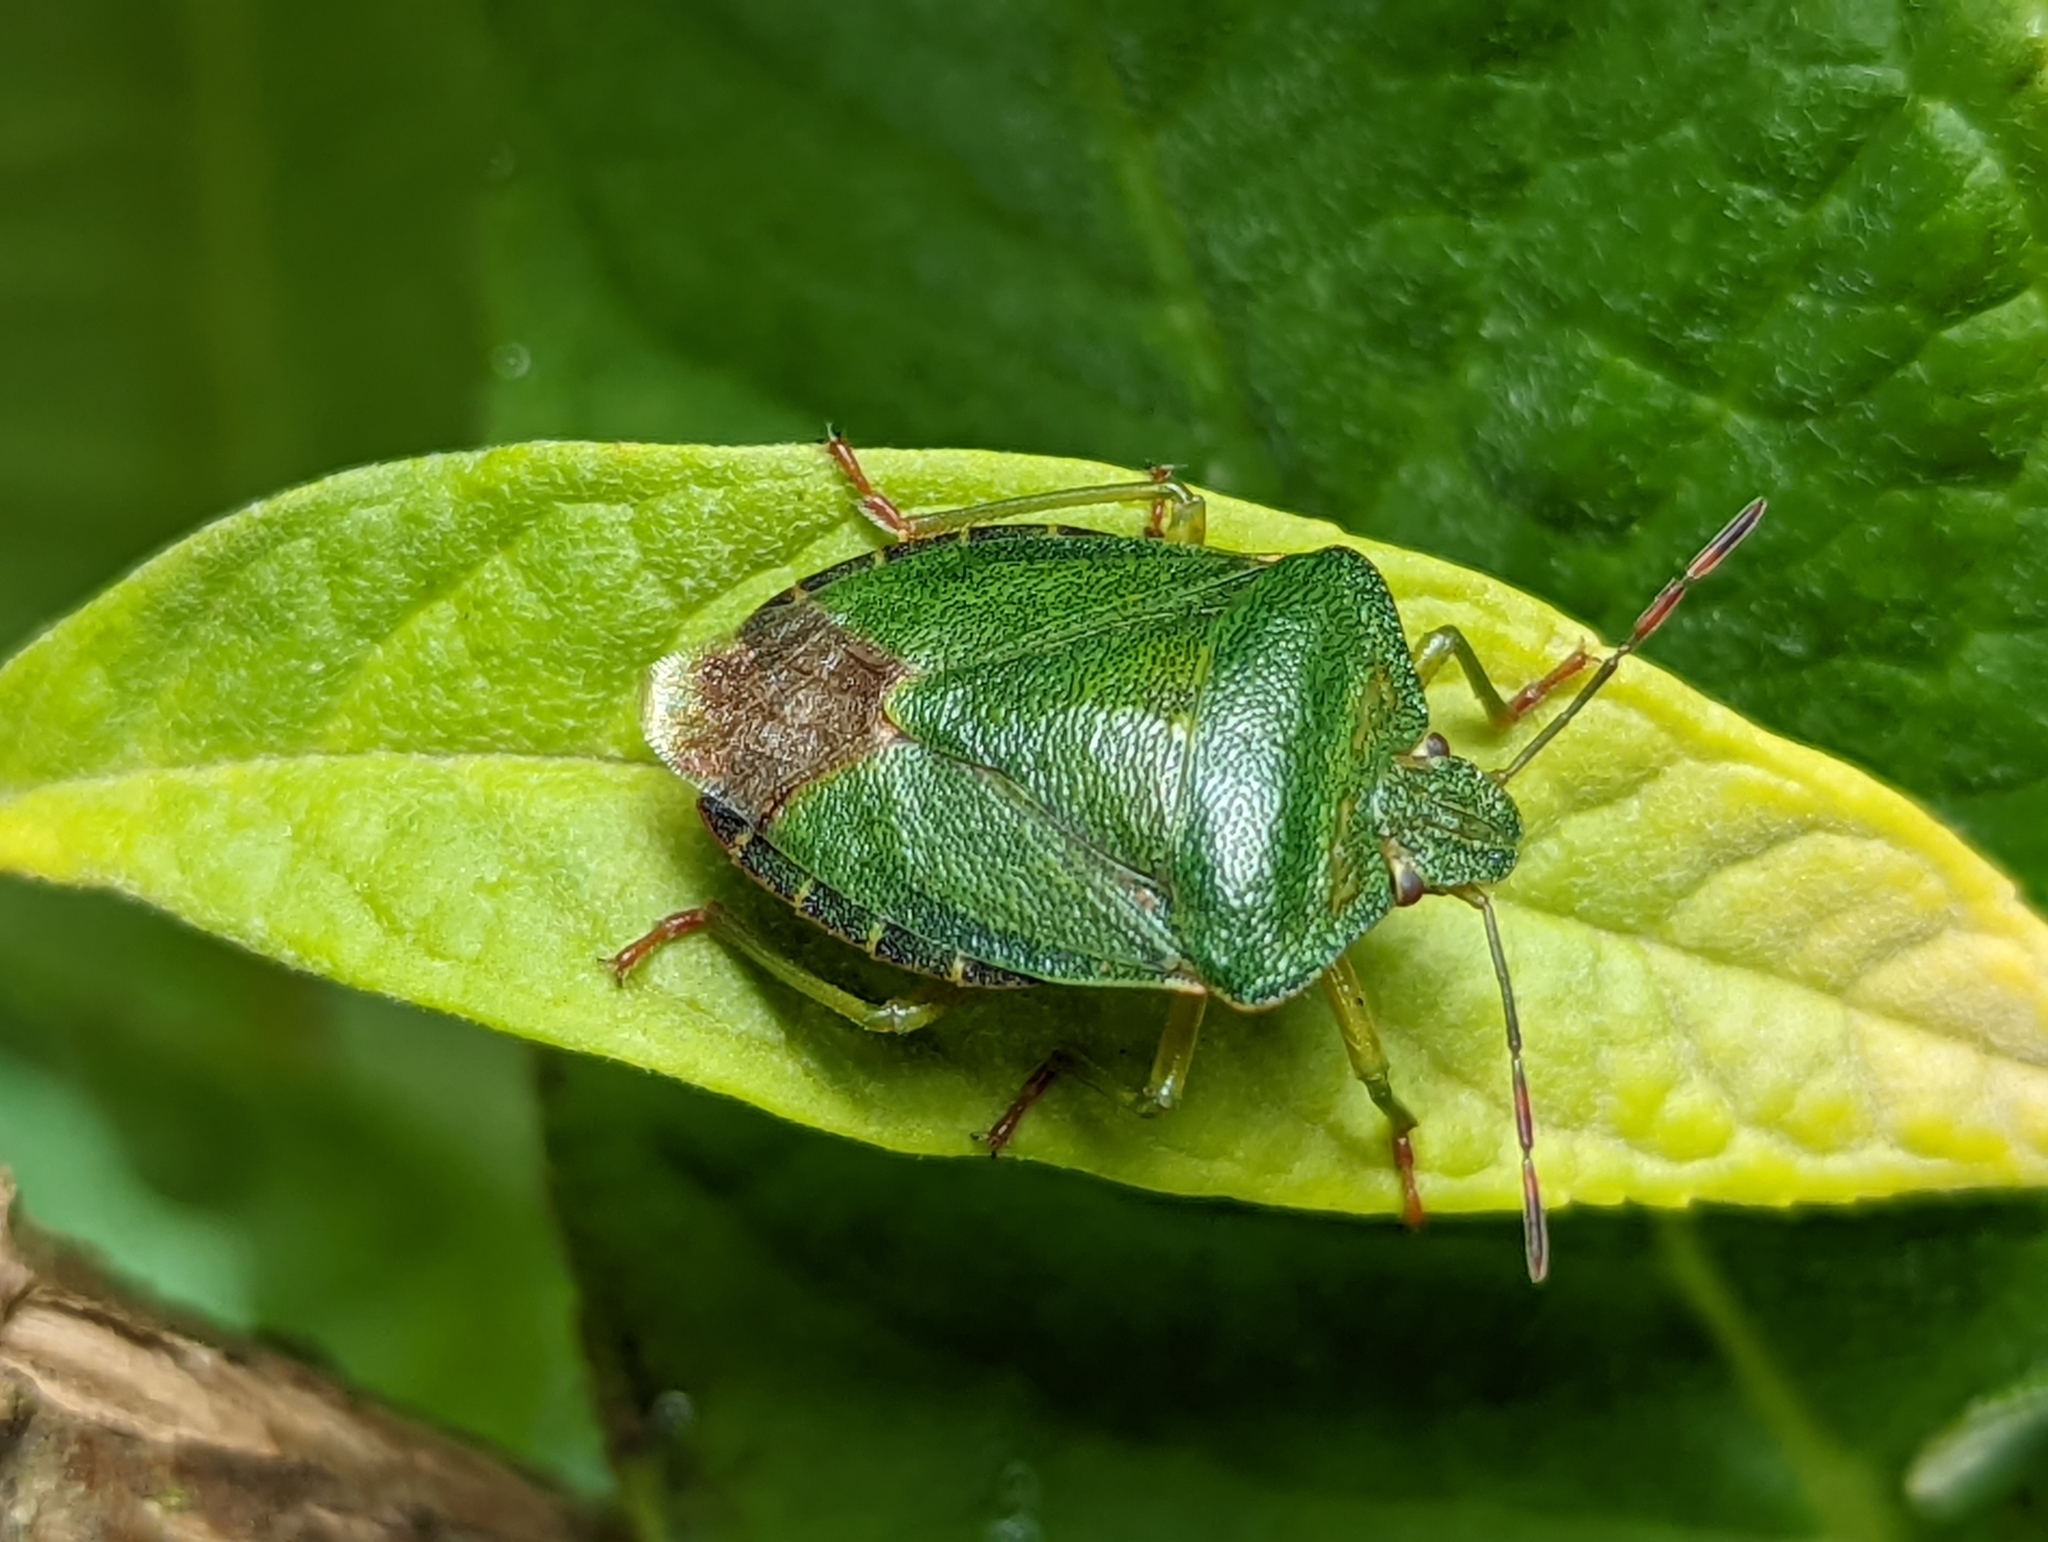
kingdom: Animalia
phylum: Arthropoda
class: Insecta
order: Hemiptera
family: Pentatomidae
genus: Palomena
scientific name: Palomena prasina
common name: Green shieldbug
